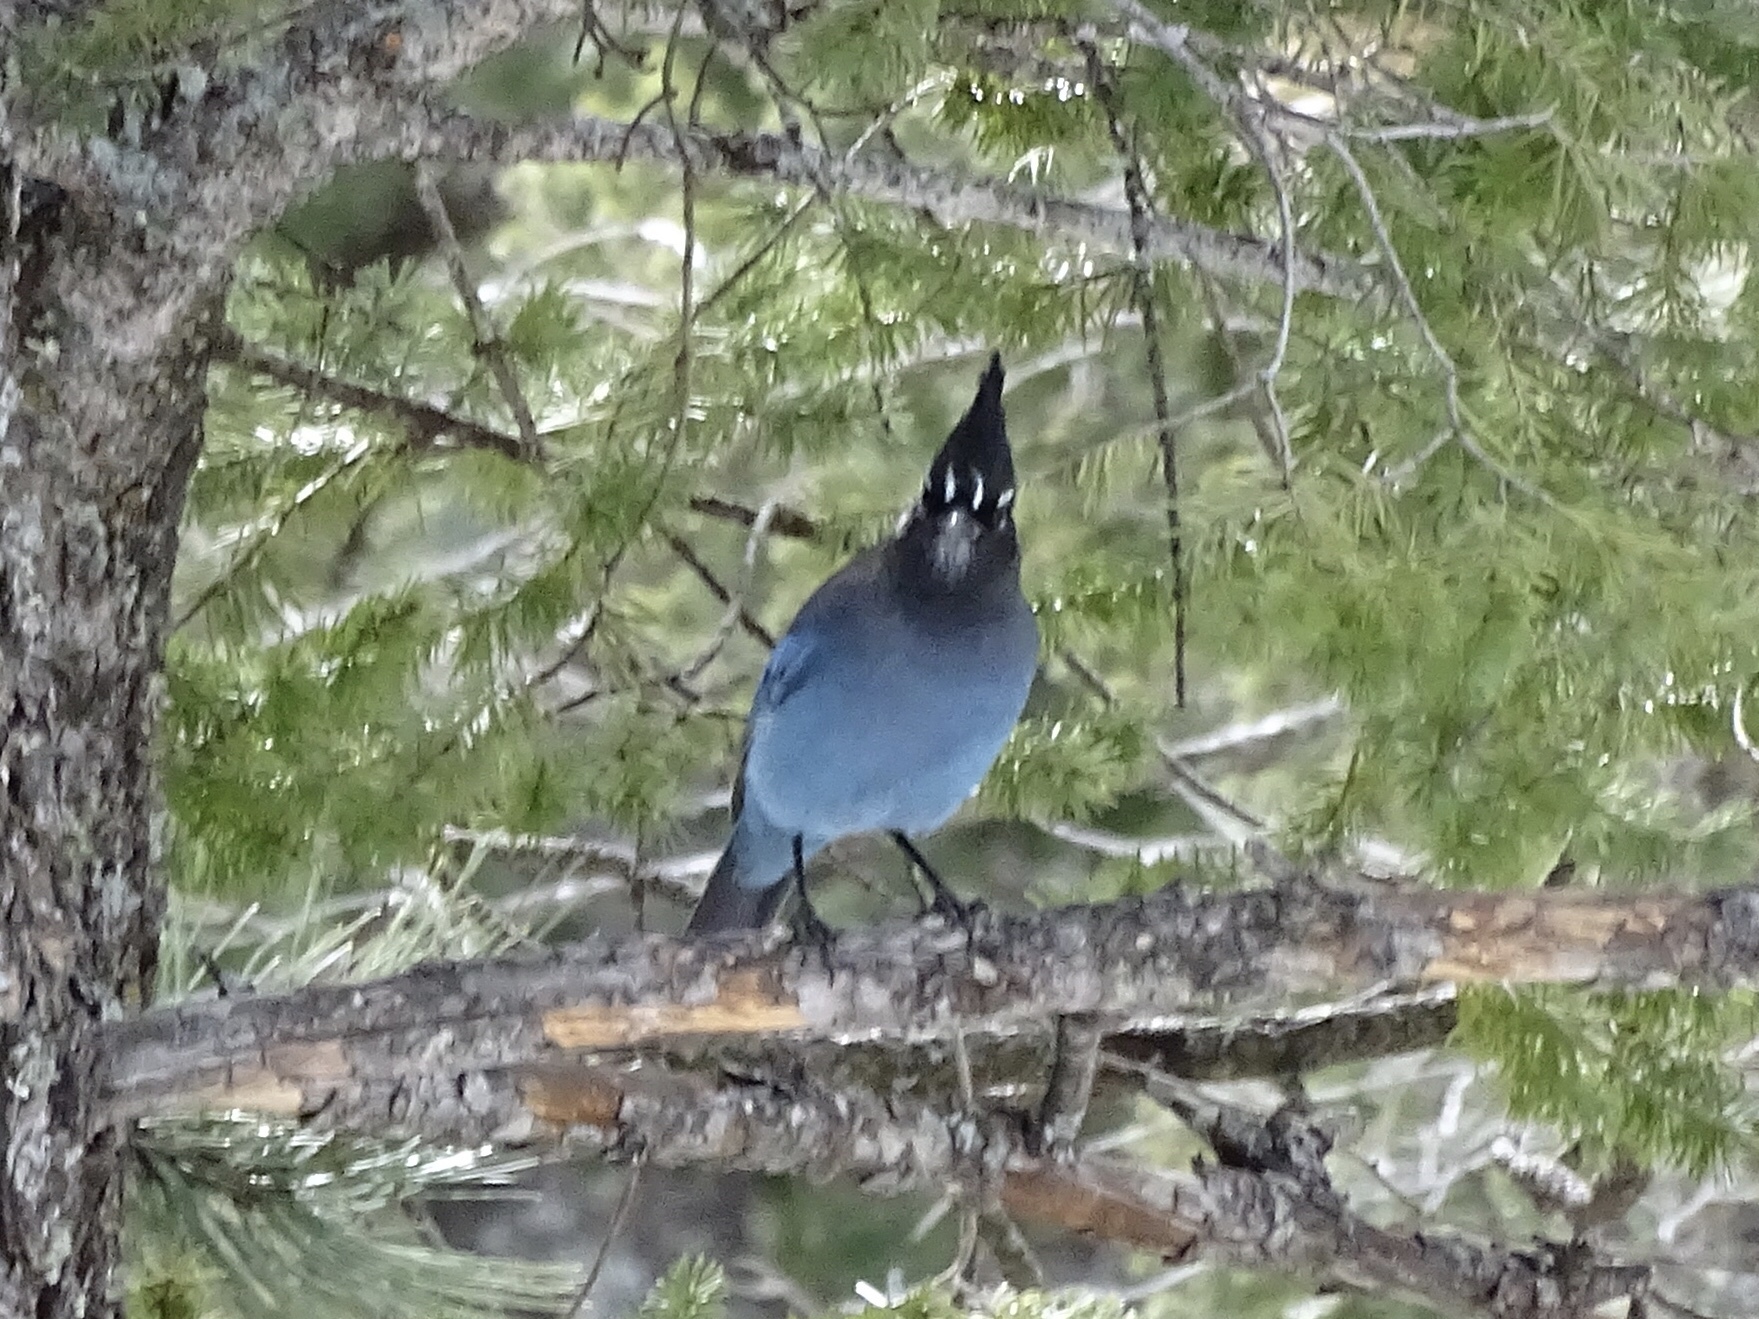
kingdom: Animalia
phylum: Chordata
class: Aves
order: Passeriformes
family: Corvidae
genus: Cyanocitta
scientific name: Cyanocitta stelleri
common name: Steller's jay
